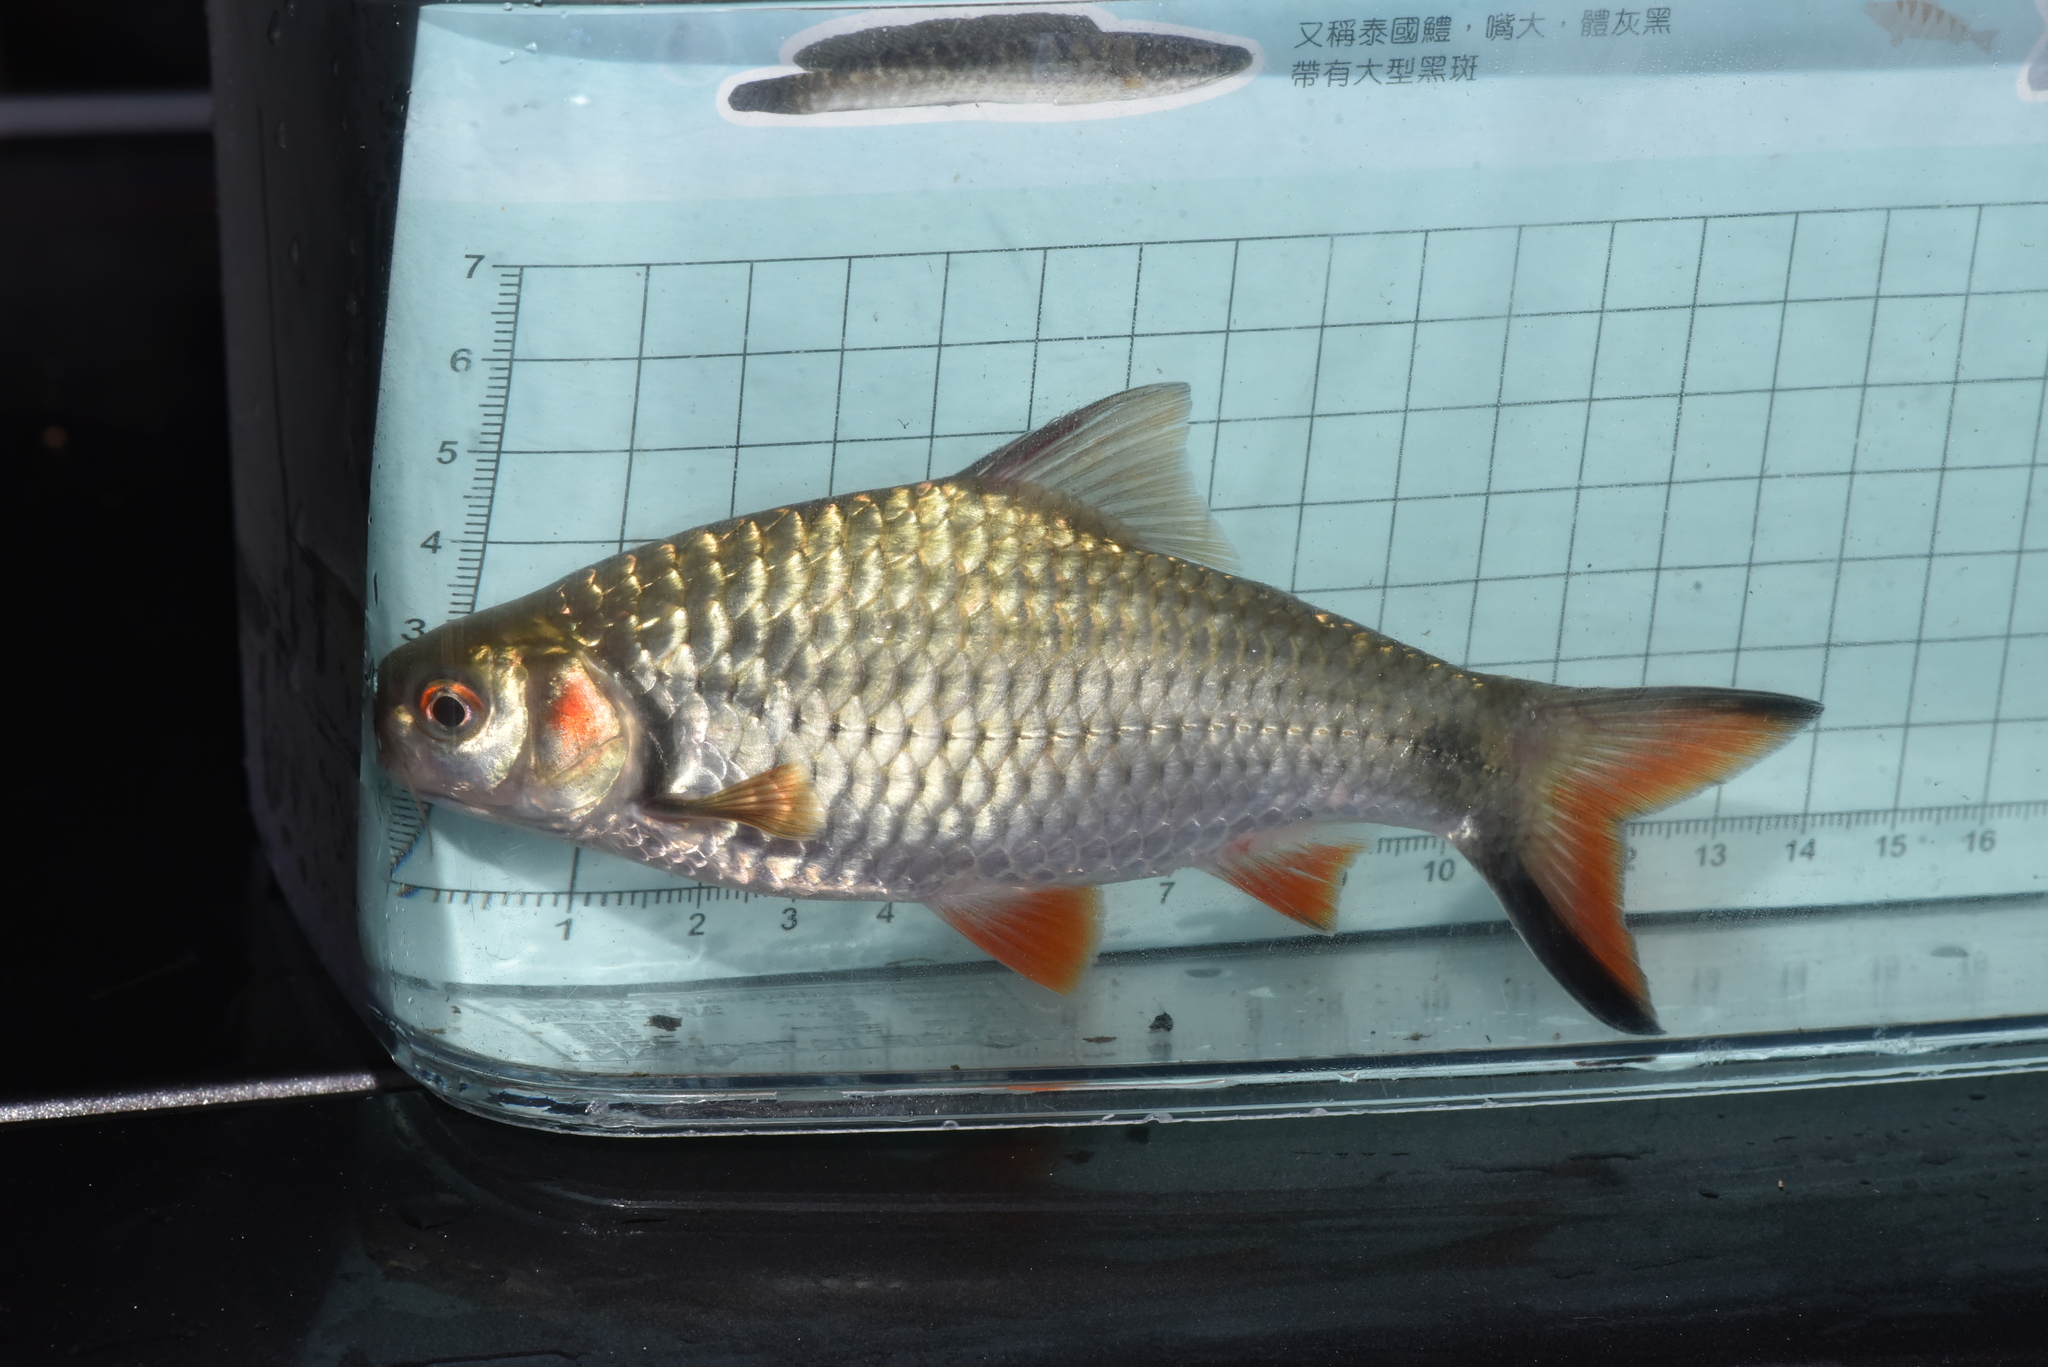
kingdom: Animalia
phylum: Chordata
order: Cypriniformes
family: Cyprinidae
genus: Systomus
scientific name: Systomus orphoides
